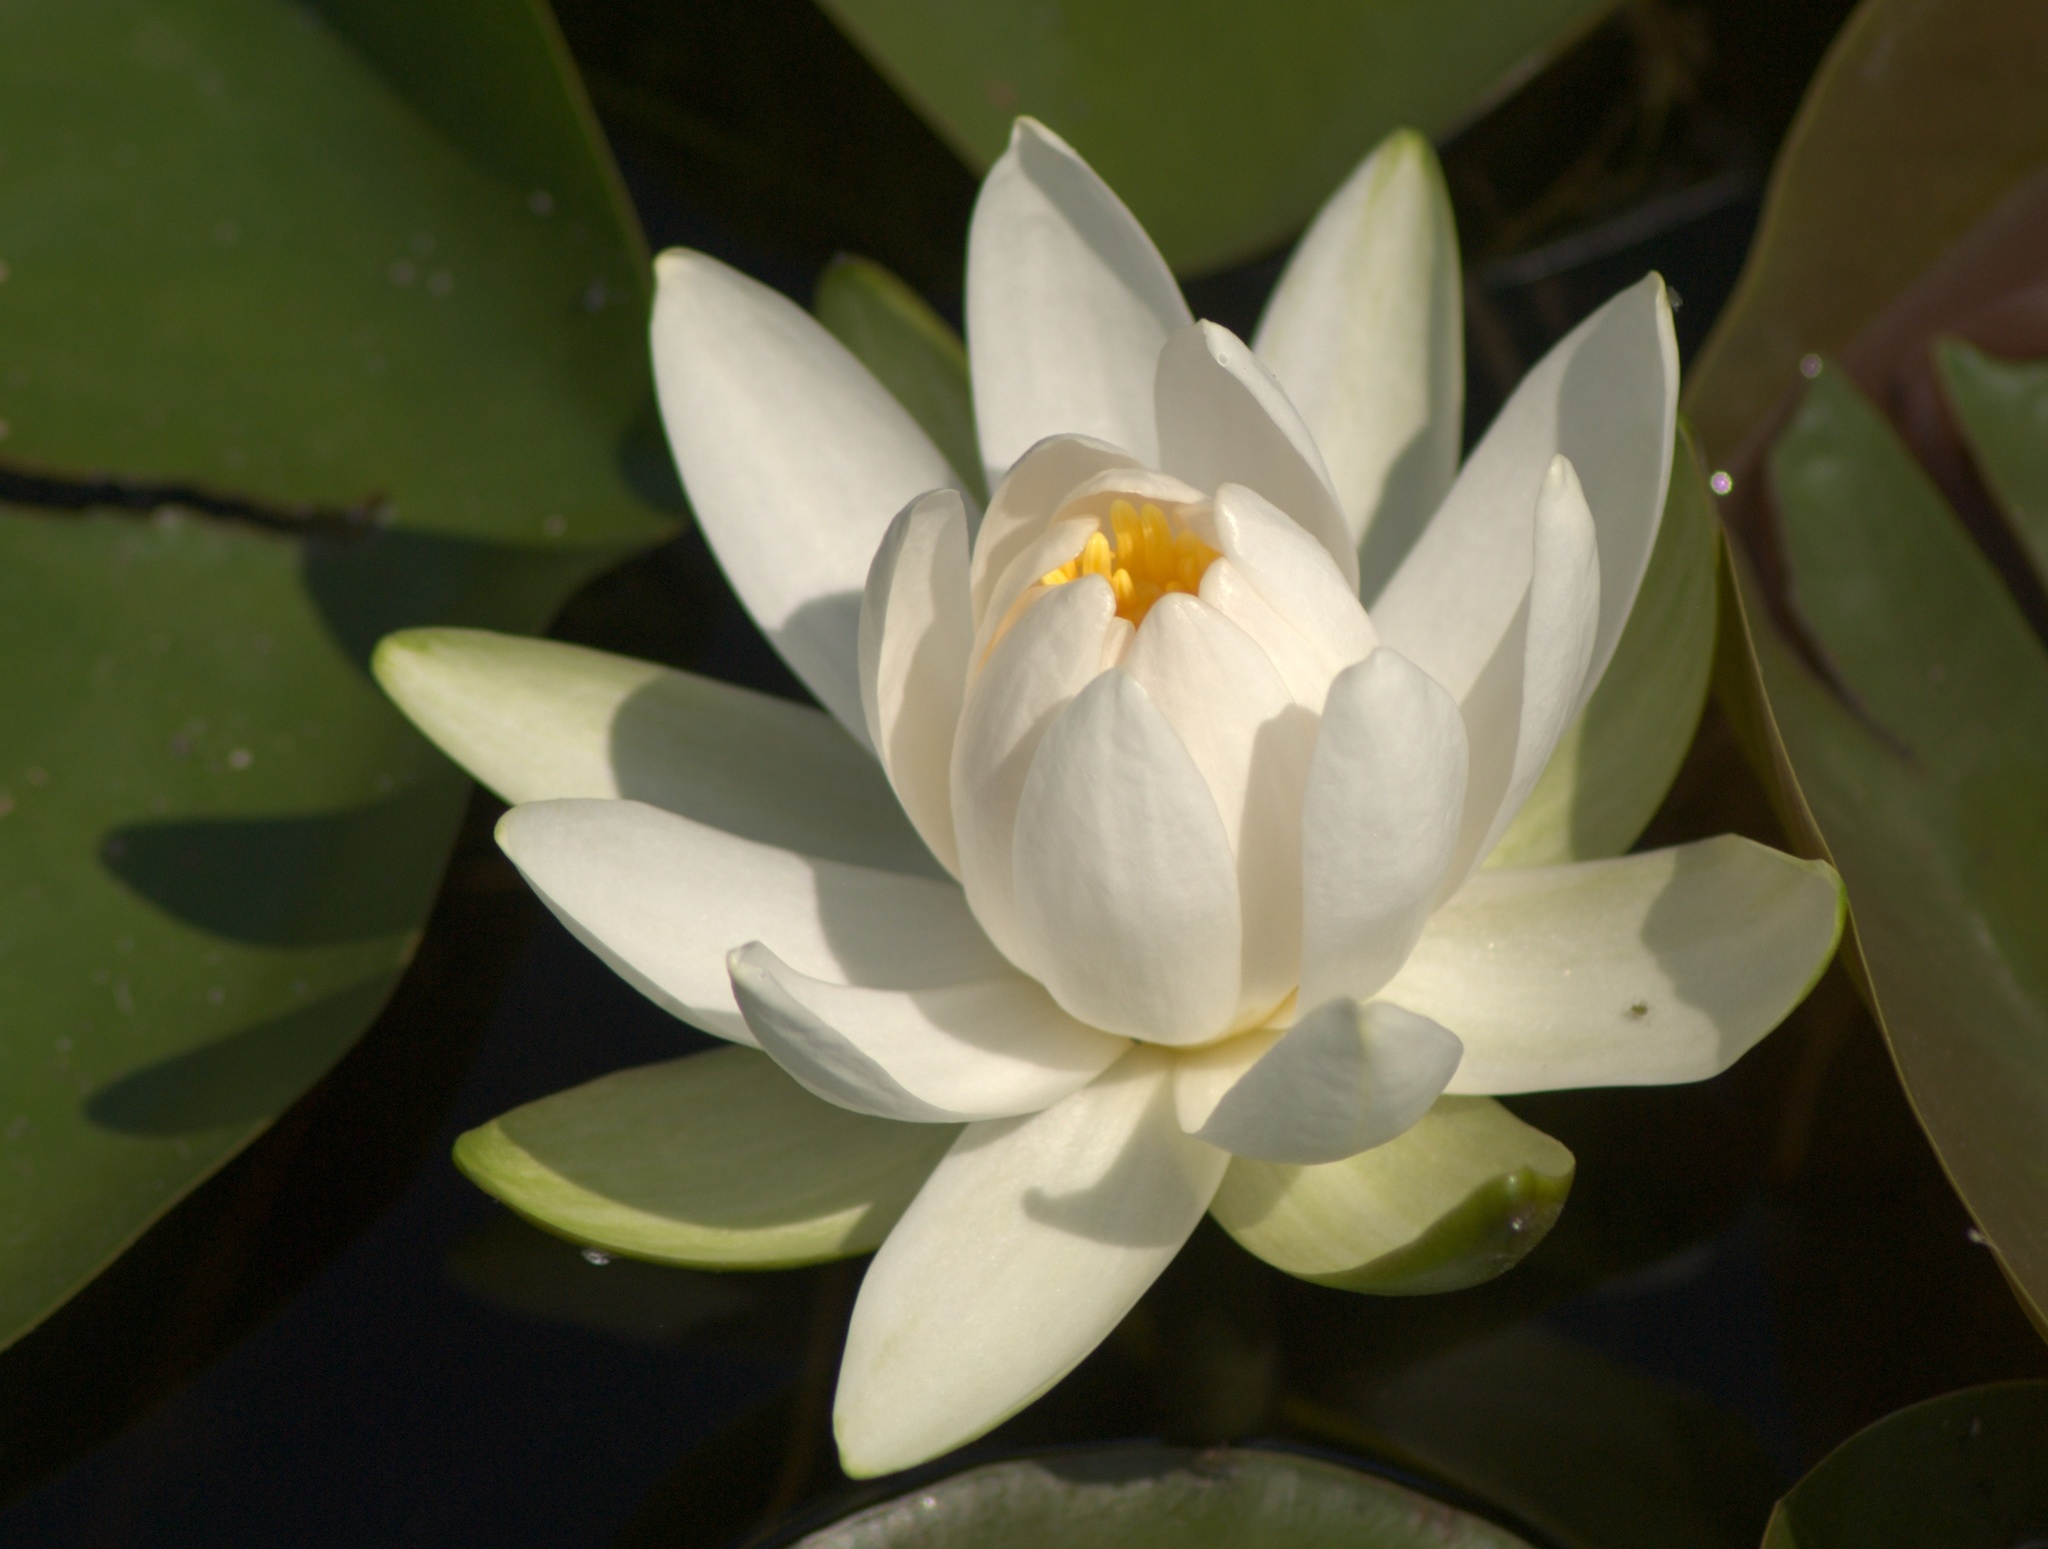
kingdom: Plantae
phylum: Tracheophyta
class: Magnoliopsida
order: Nymphaeales
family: Nymphaeaceae
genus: Nymphaea
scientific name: Nymphaea odorata
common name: Fragrant water-lily
